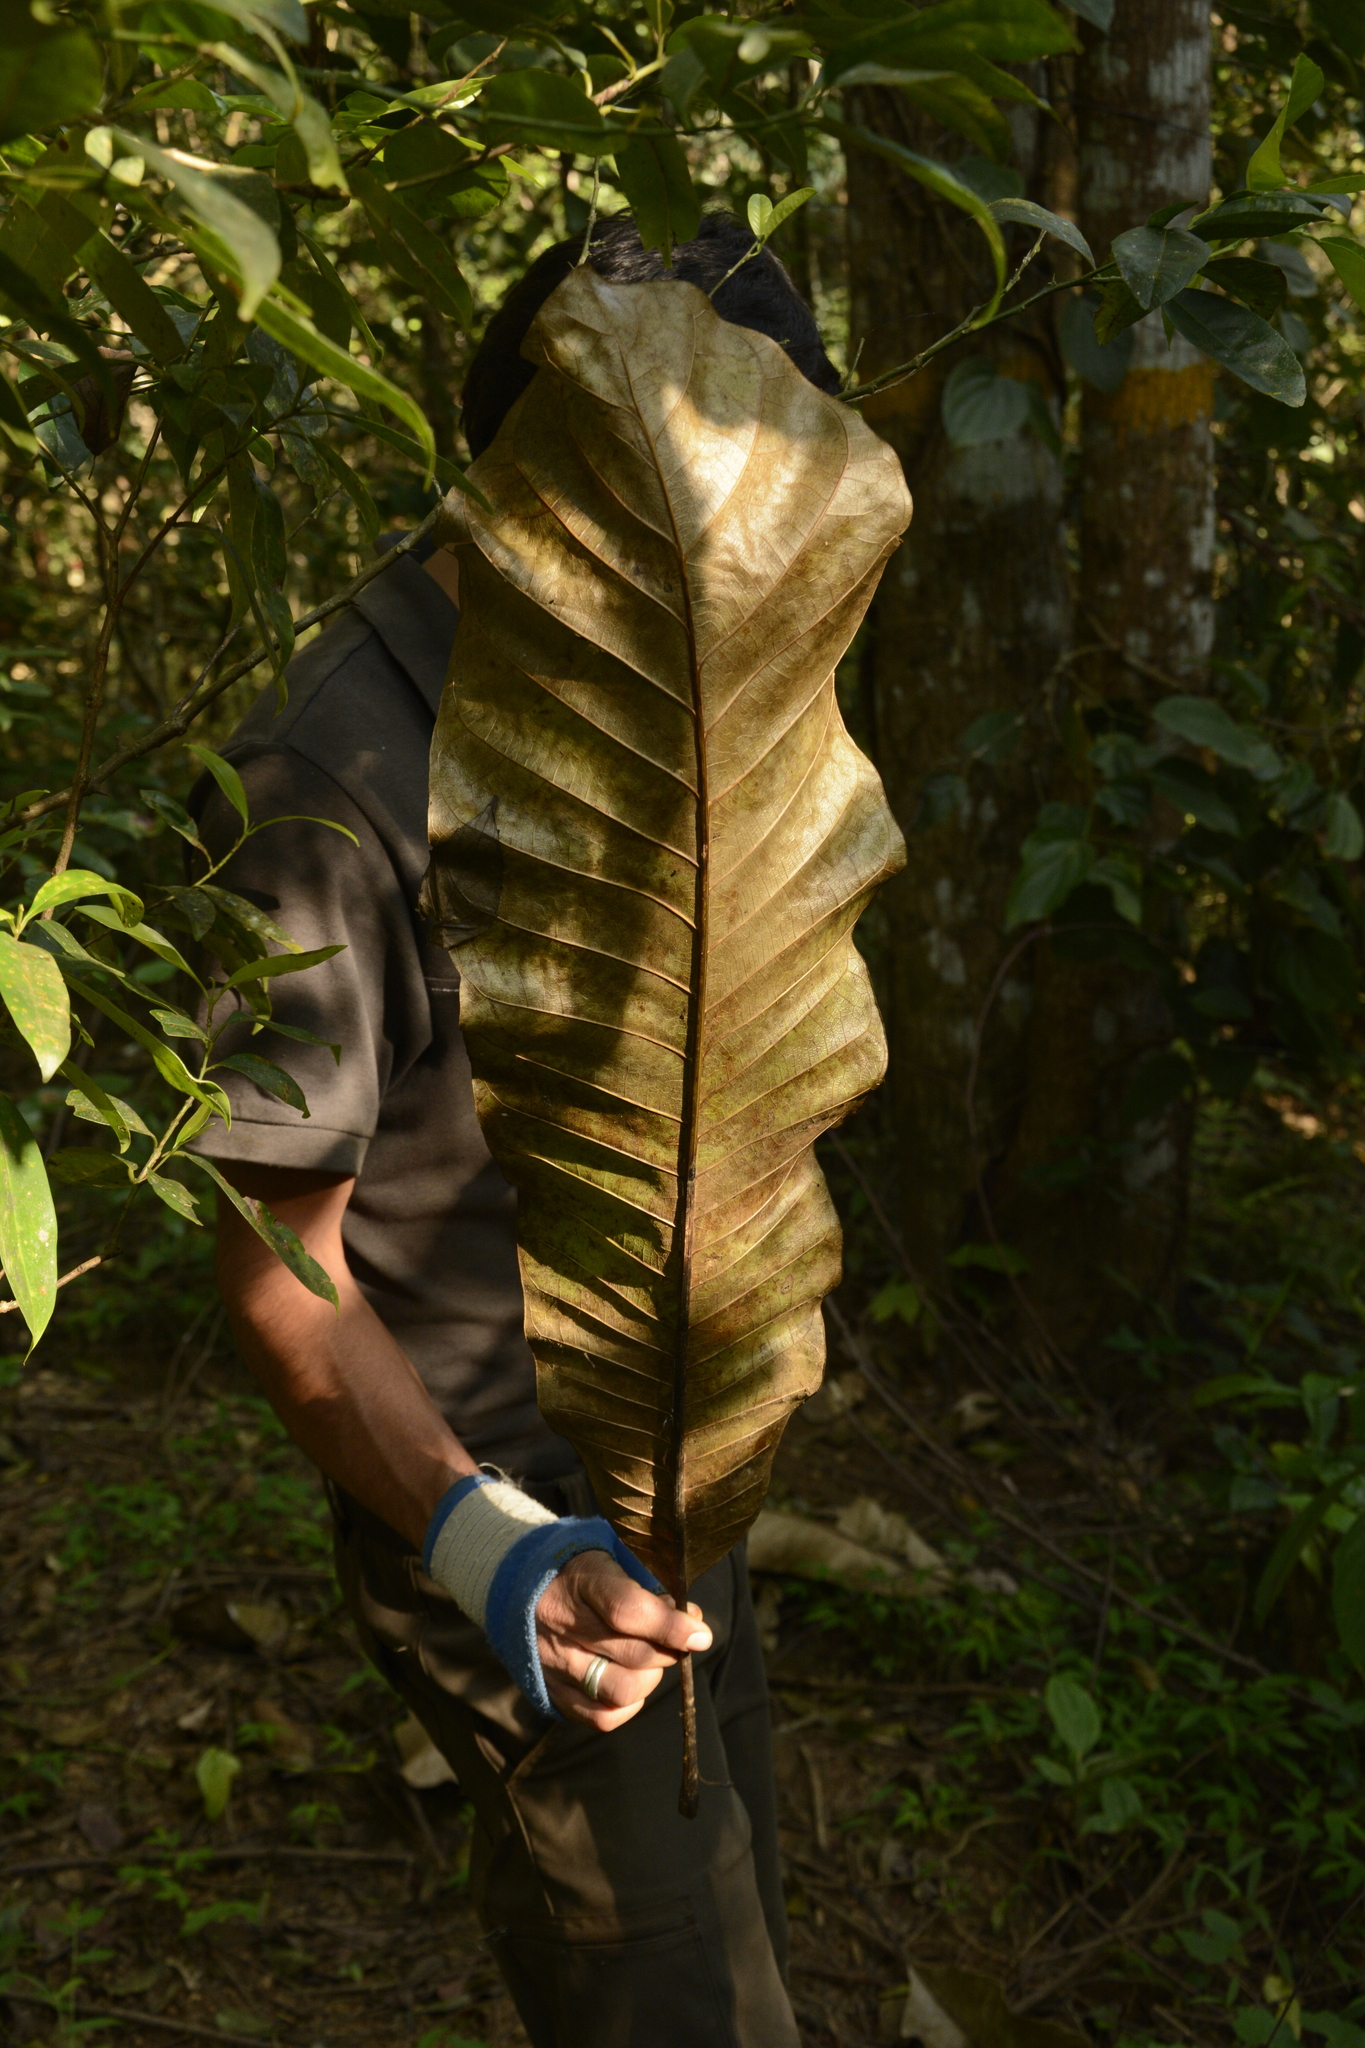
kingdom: Plantae
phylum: Tracheophyta
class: Magnoliopsida
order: Sapindales
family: Anacardiaceae
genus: Semecarpus
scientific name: Semecarpus travancoricus
